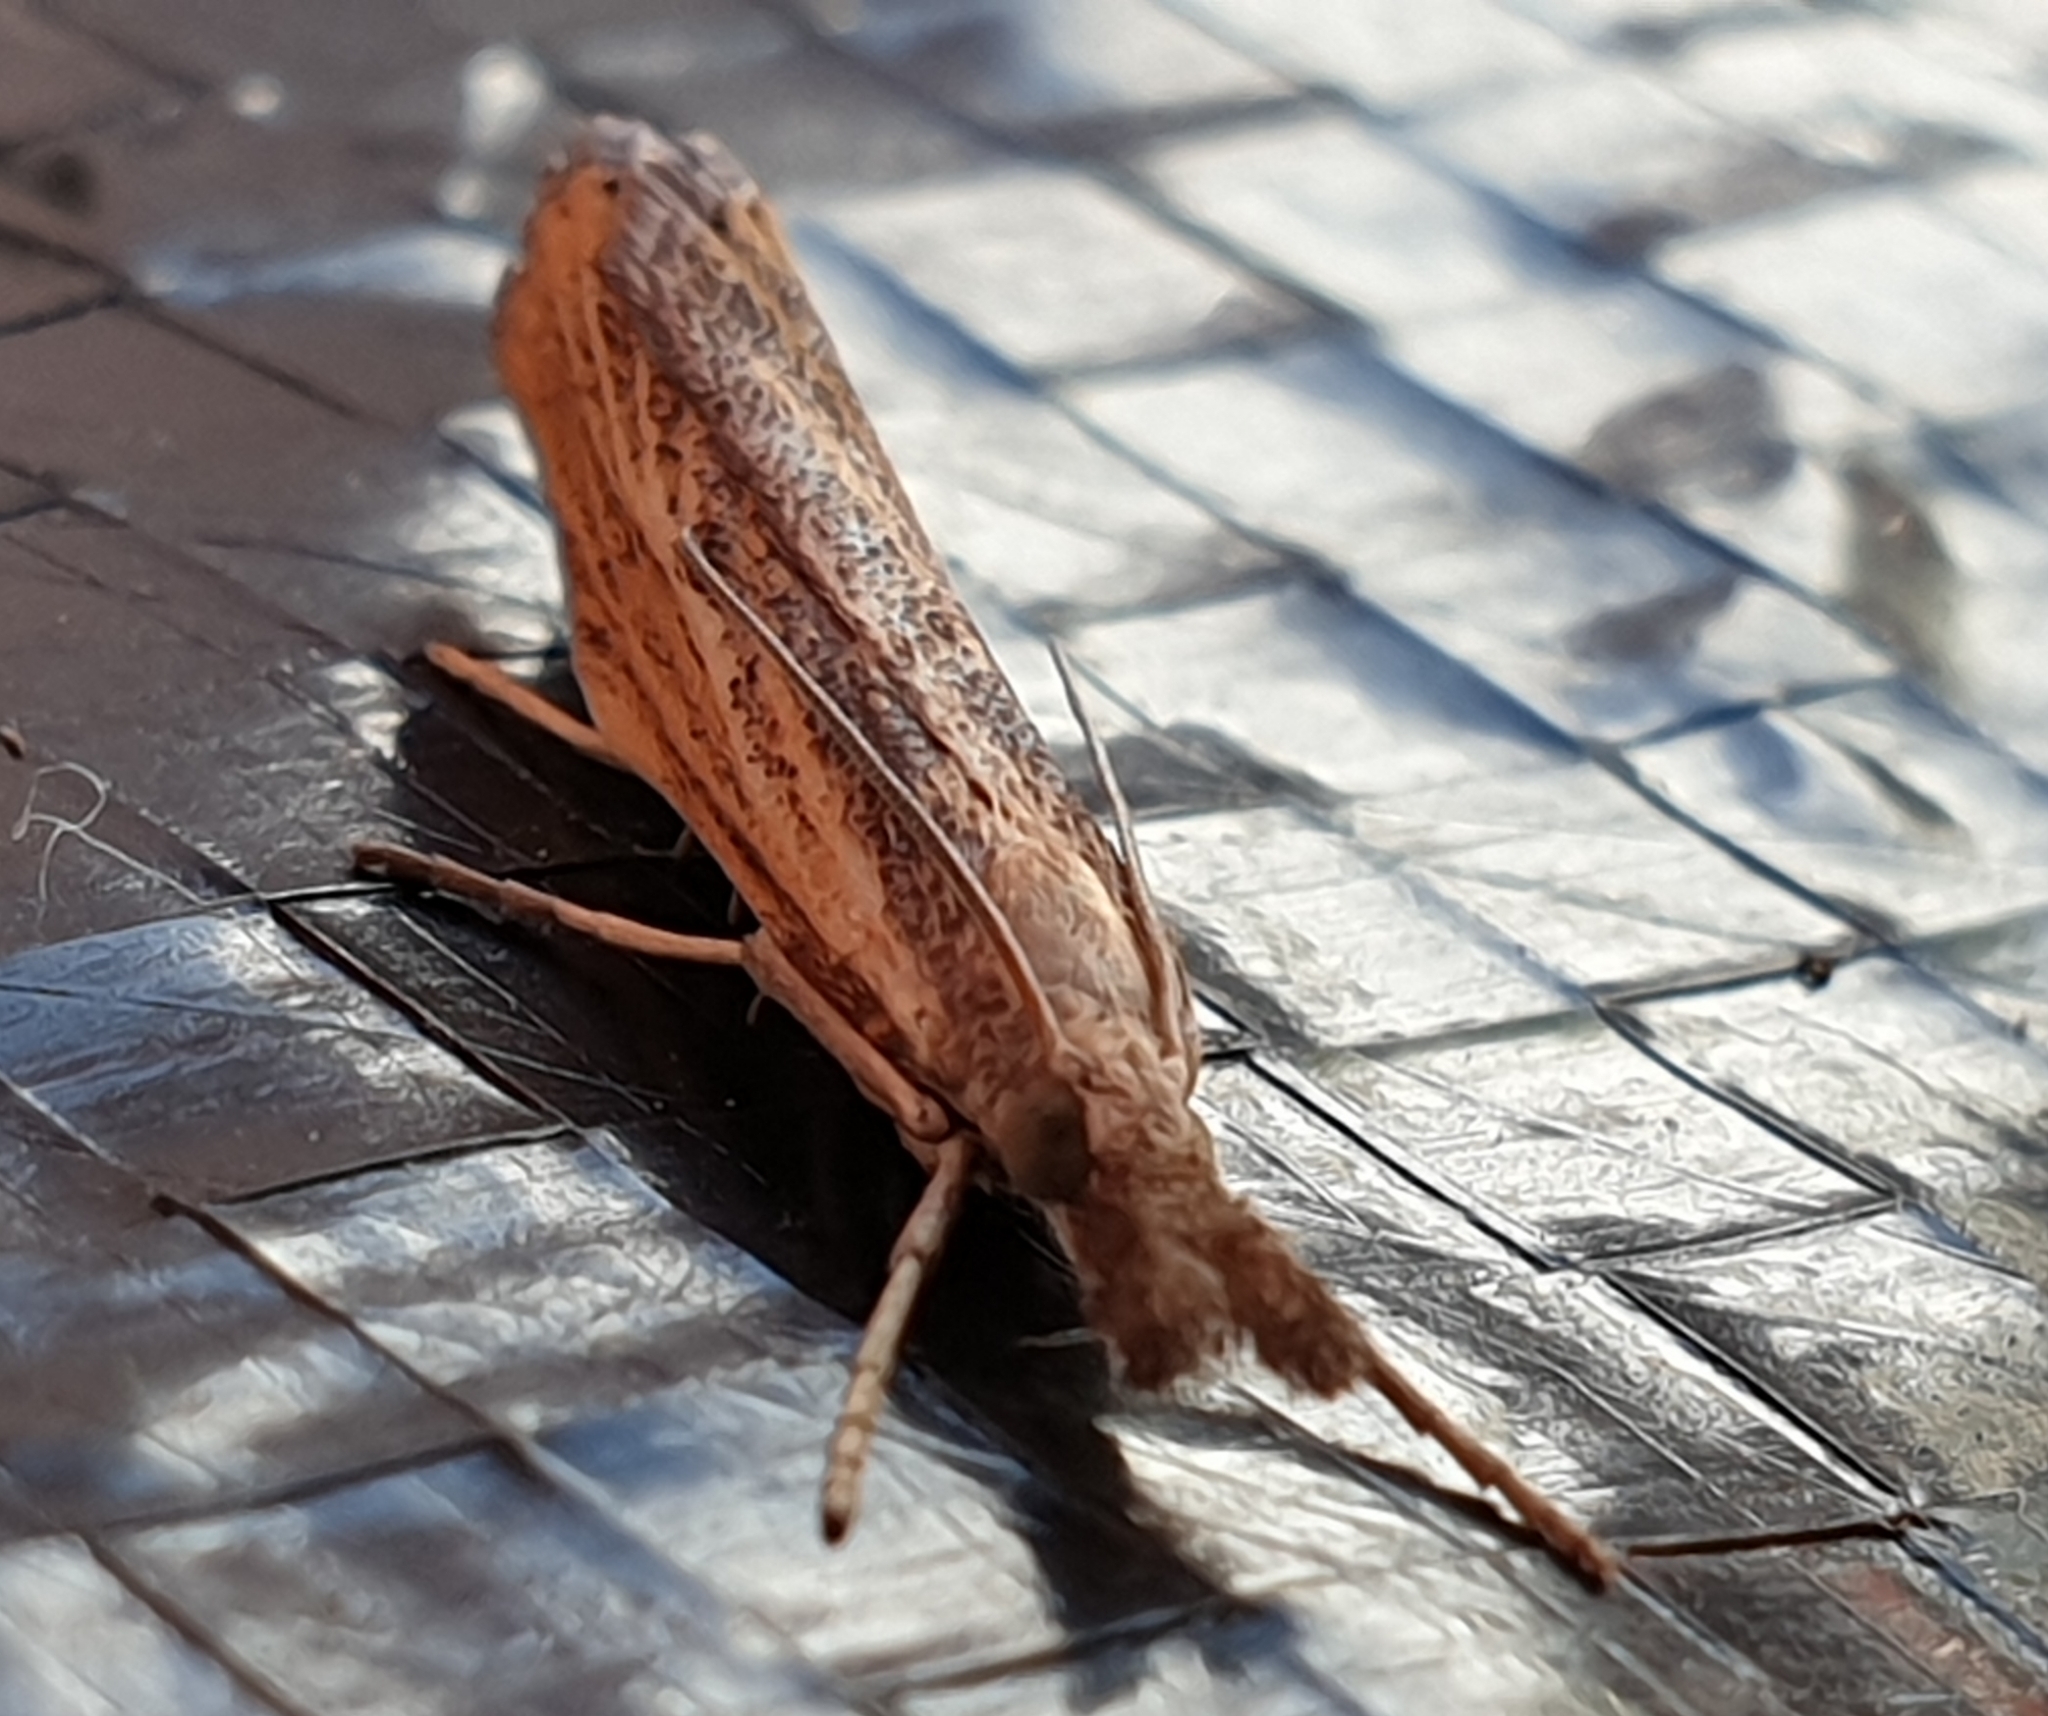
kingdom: Animalia
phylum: Arthropoda
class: Insecta
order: Lepidoptera
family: Crambidae
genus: Agriphila
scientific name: Agriphila straminella
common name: Straw grass-veneer
